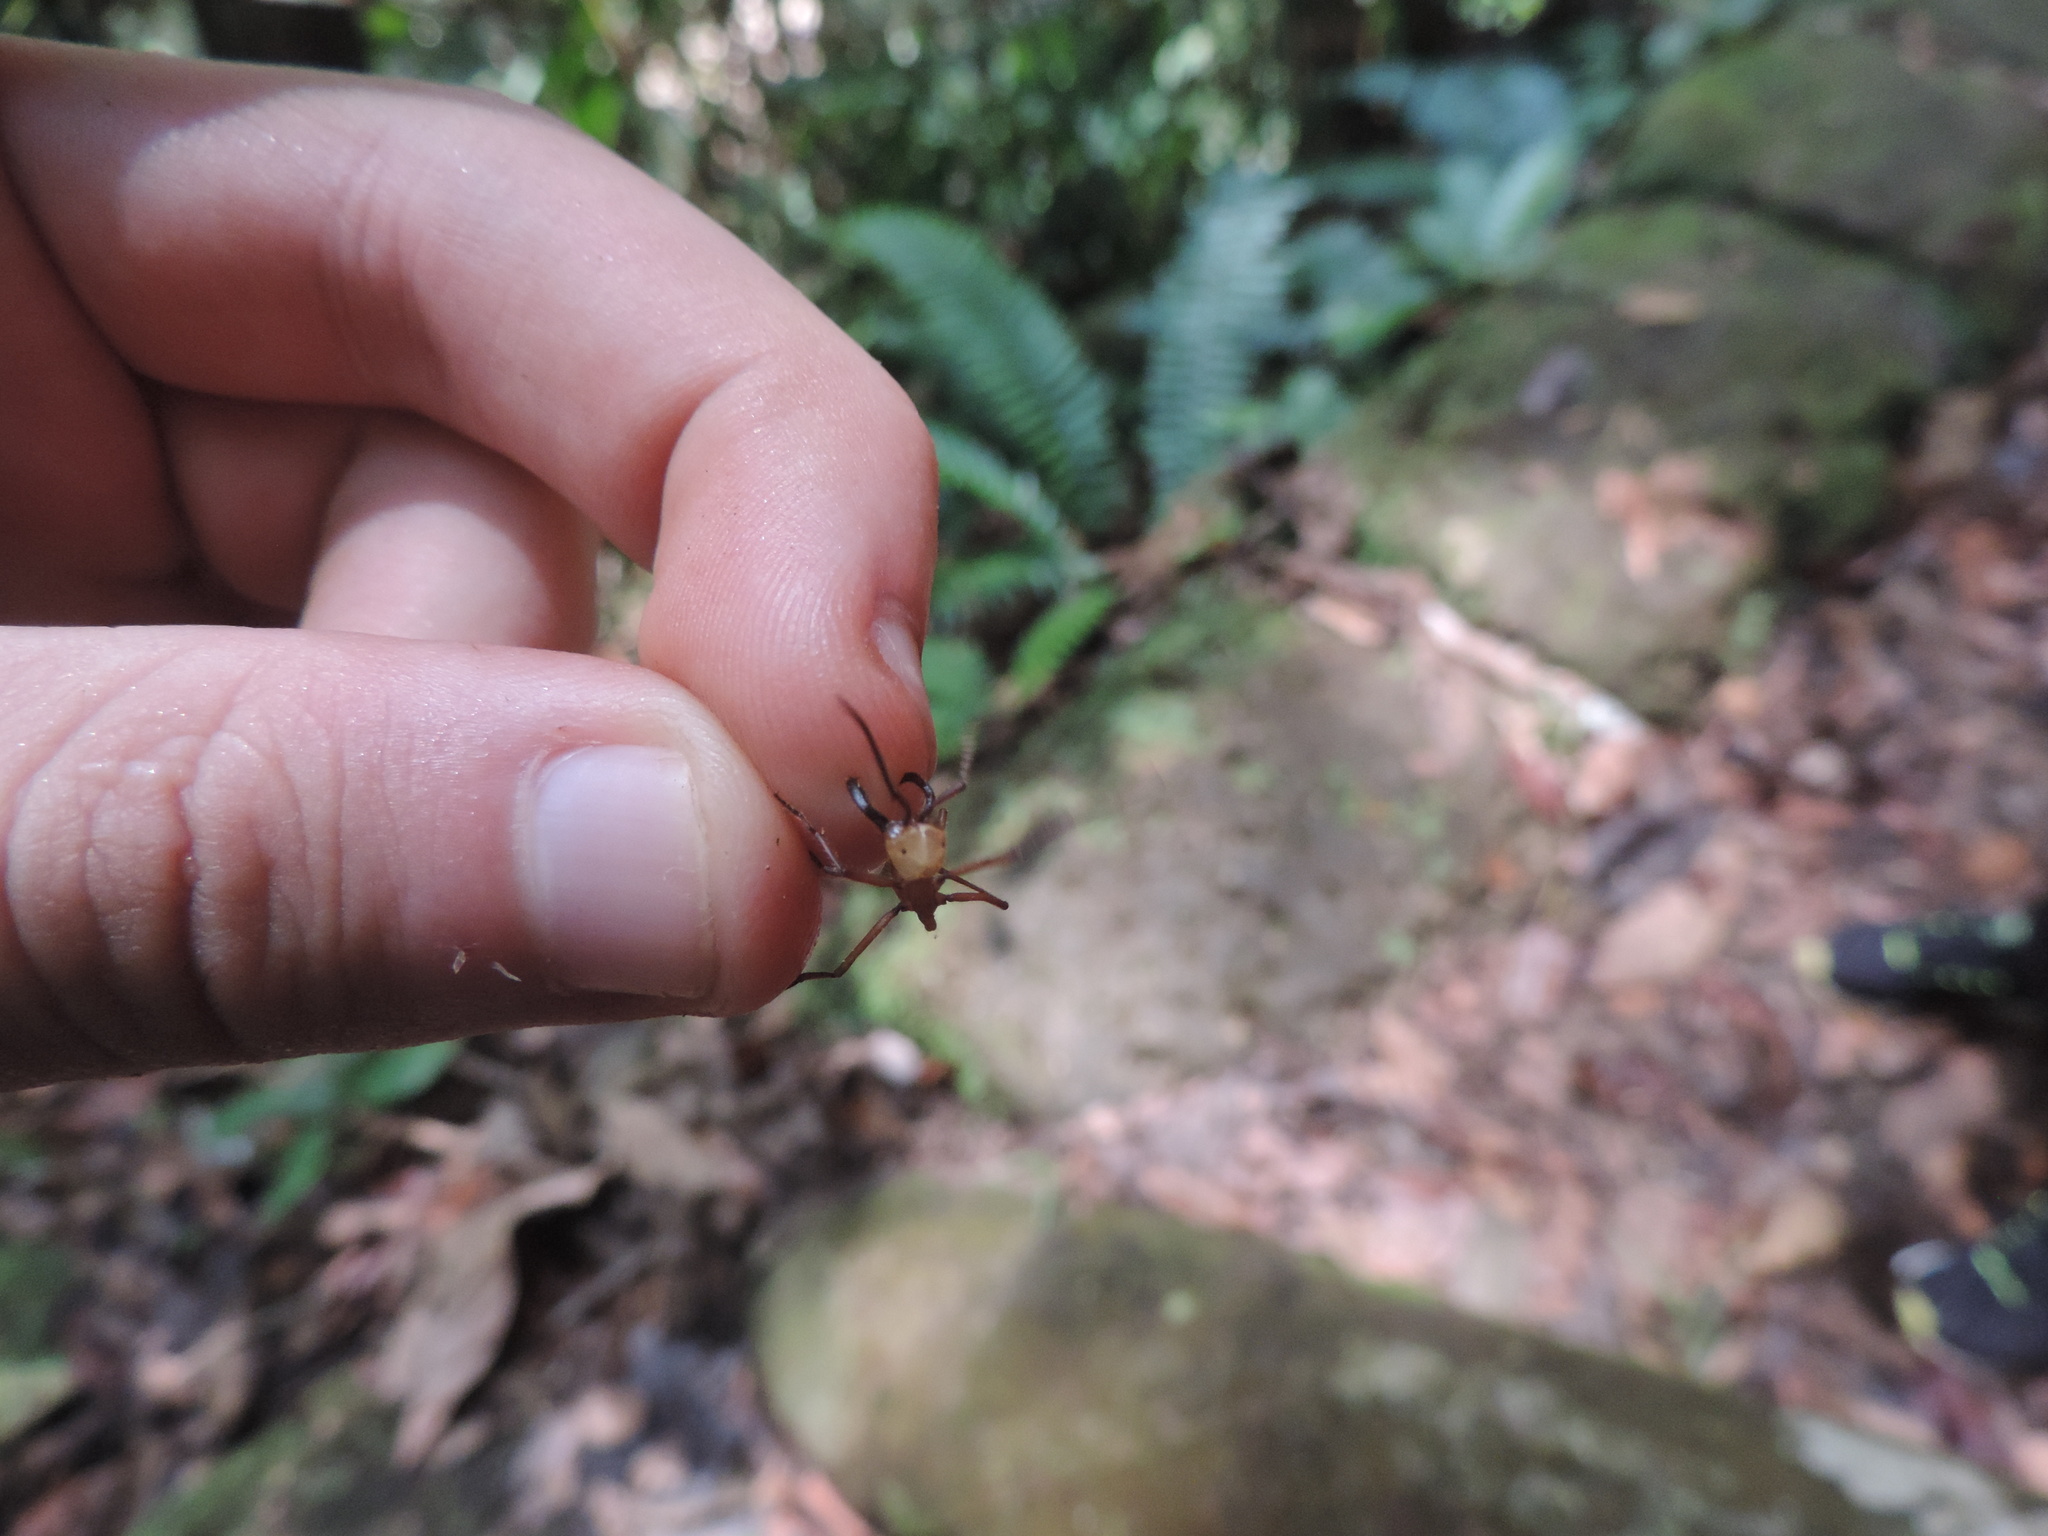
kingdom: Animalia
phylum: Arthropoda
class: Insecta
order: Hymenoptera
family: Formicidae
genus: Eciton
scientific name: Eciton burchellii
